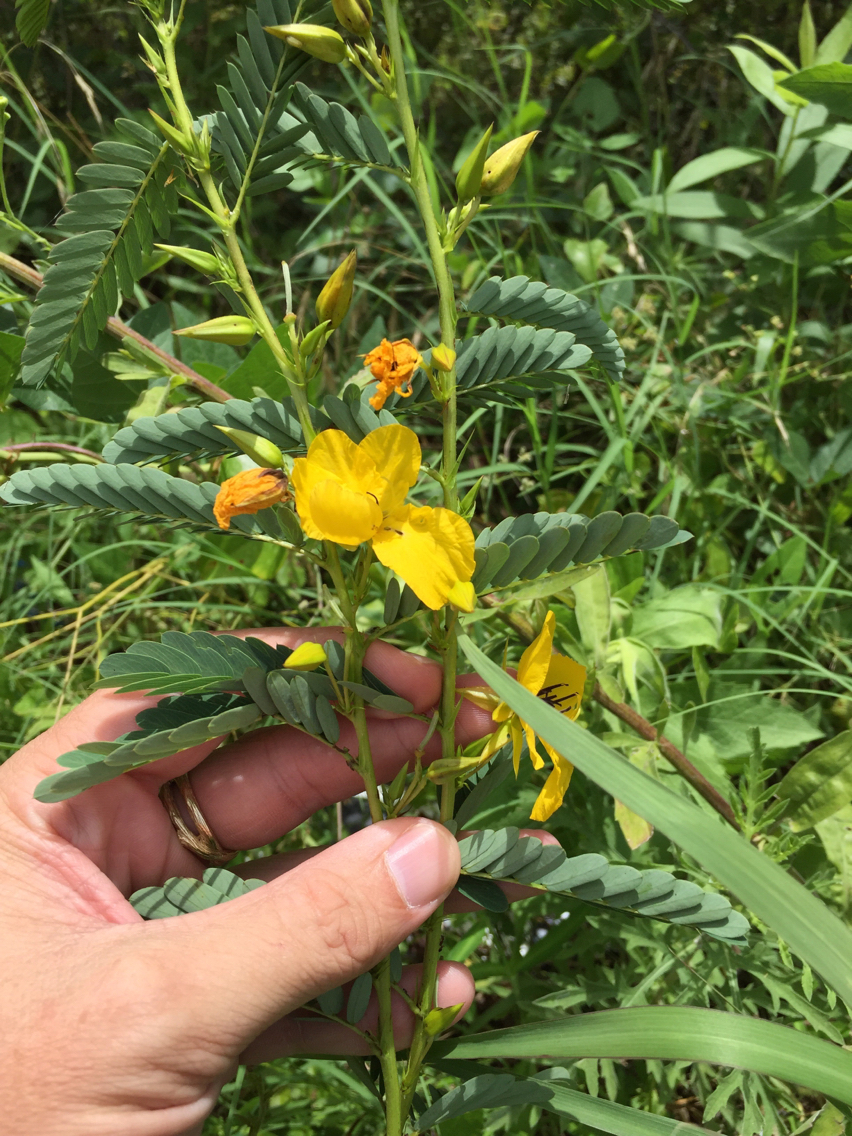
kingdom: Plantae
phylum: Tracheophyta
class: Magnoliopsida
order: Fabales
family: Fabaceae
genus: Chamaecrista
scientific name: Chamaecrista fasciculata
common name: Golden cassia
